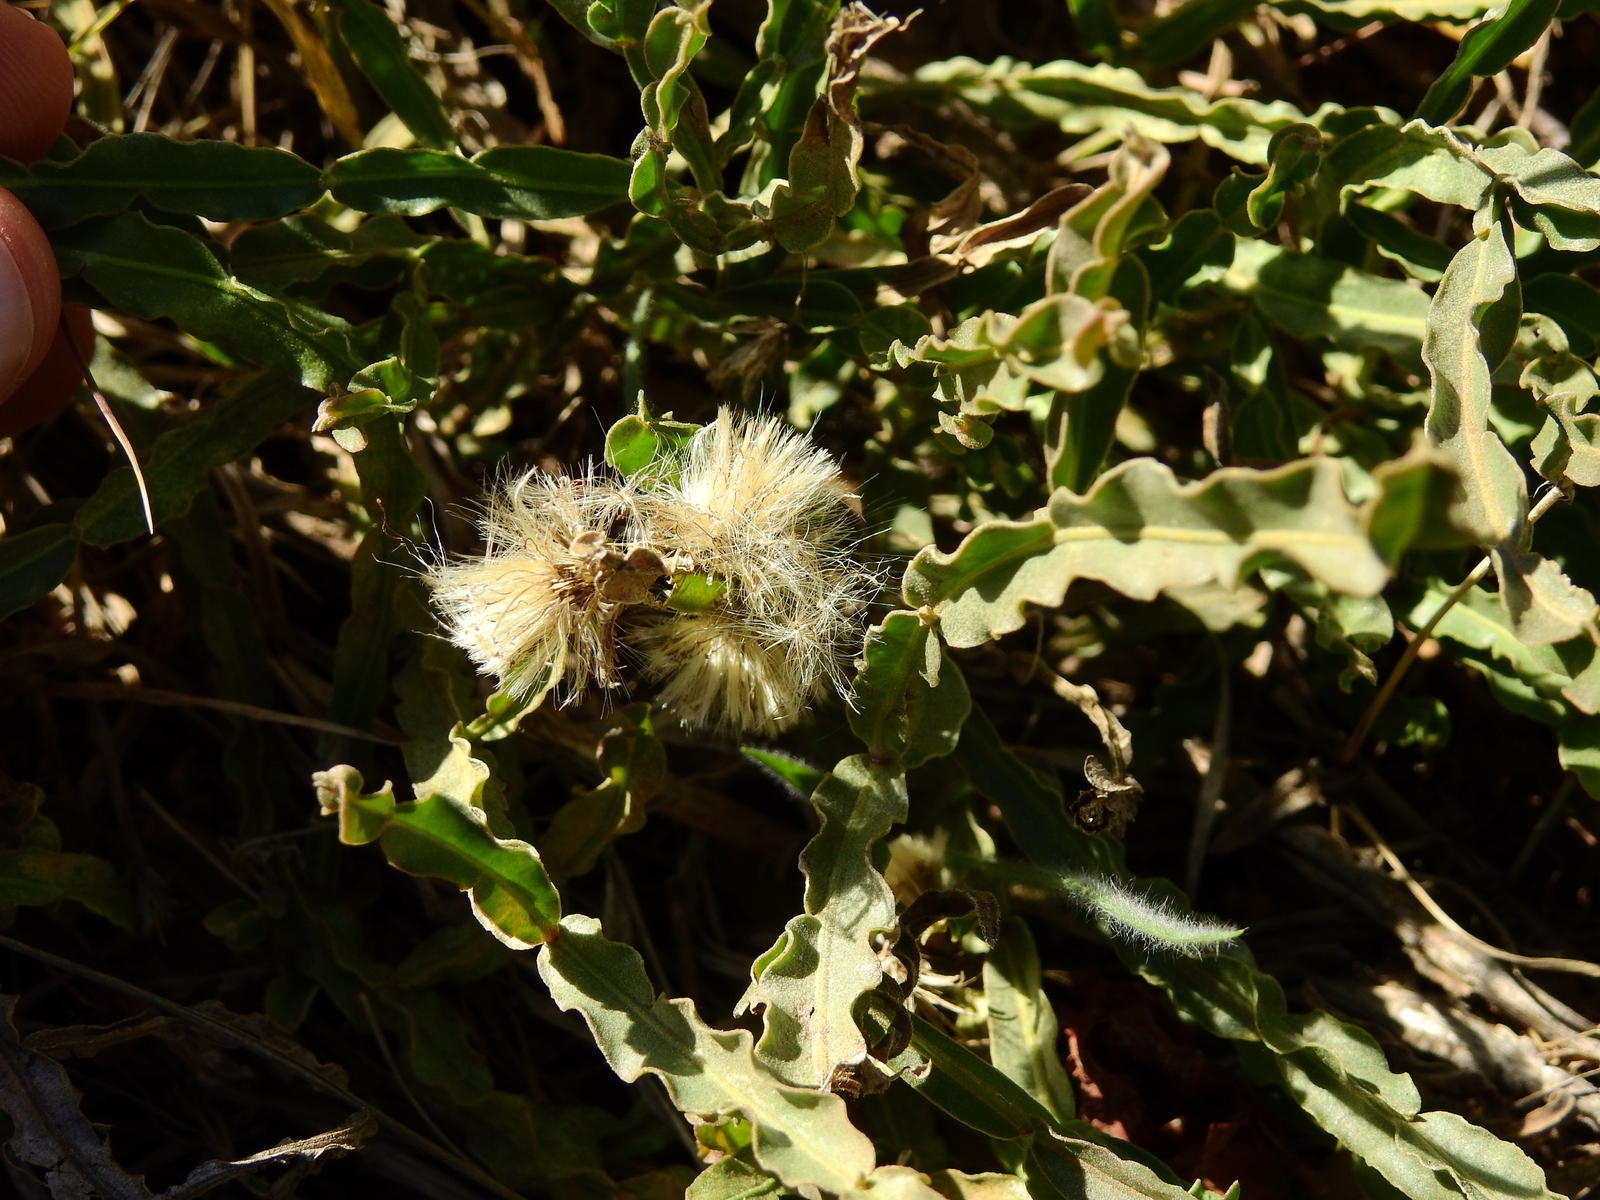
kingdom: Plantae
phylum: Tracheophyta
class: Magnoliopsida
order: Asterales
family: Asteraceae
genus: Baccharis
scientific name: Baccharis crispa
